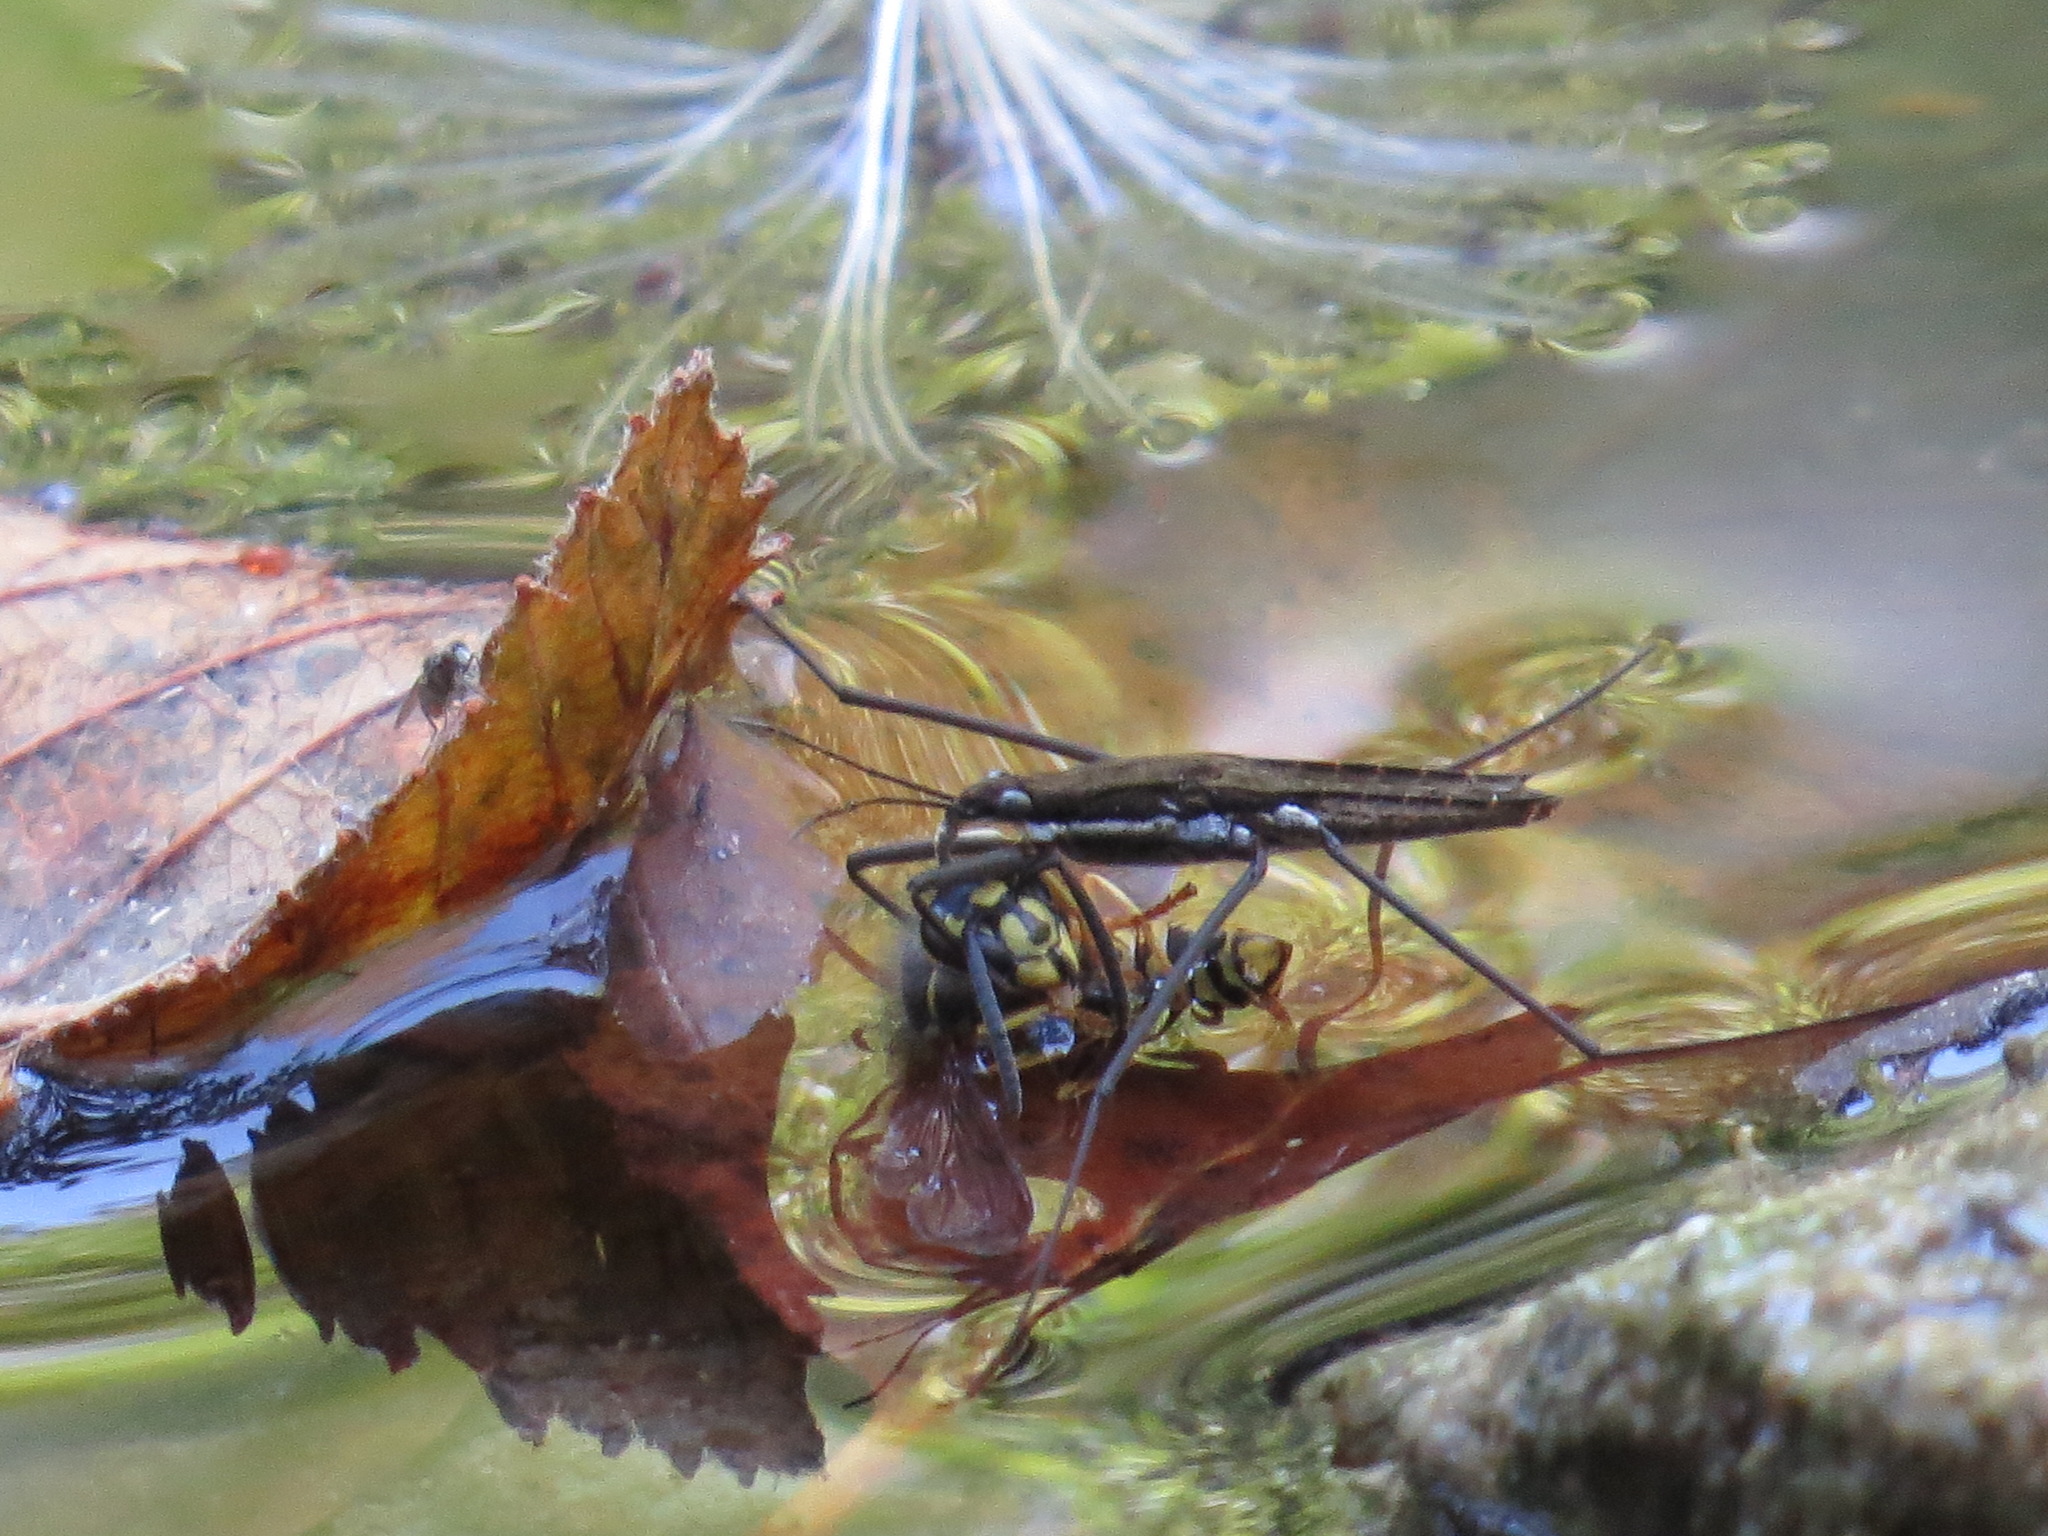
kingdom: Animalia
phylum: Arthropoda
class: Insecta
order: Hemiptera
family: Gerridae
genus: Aquarius
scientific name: Aquarius remigis
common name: Common water strider
